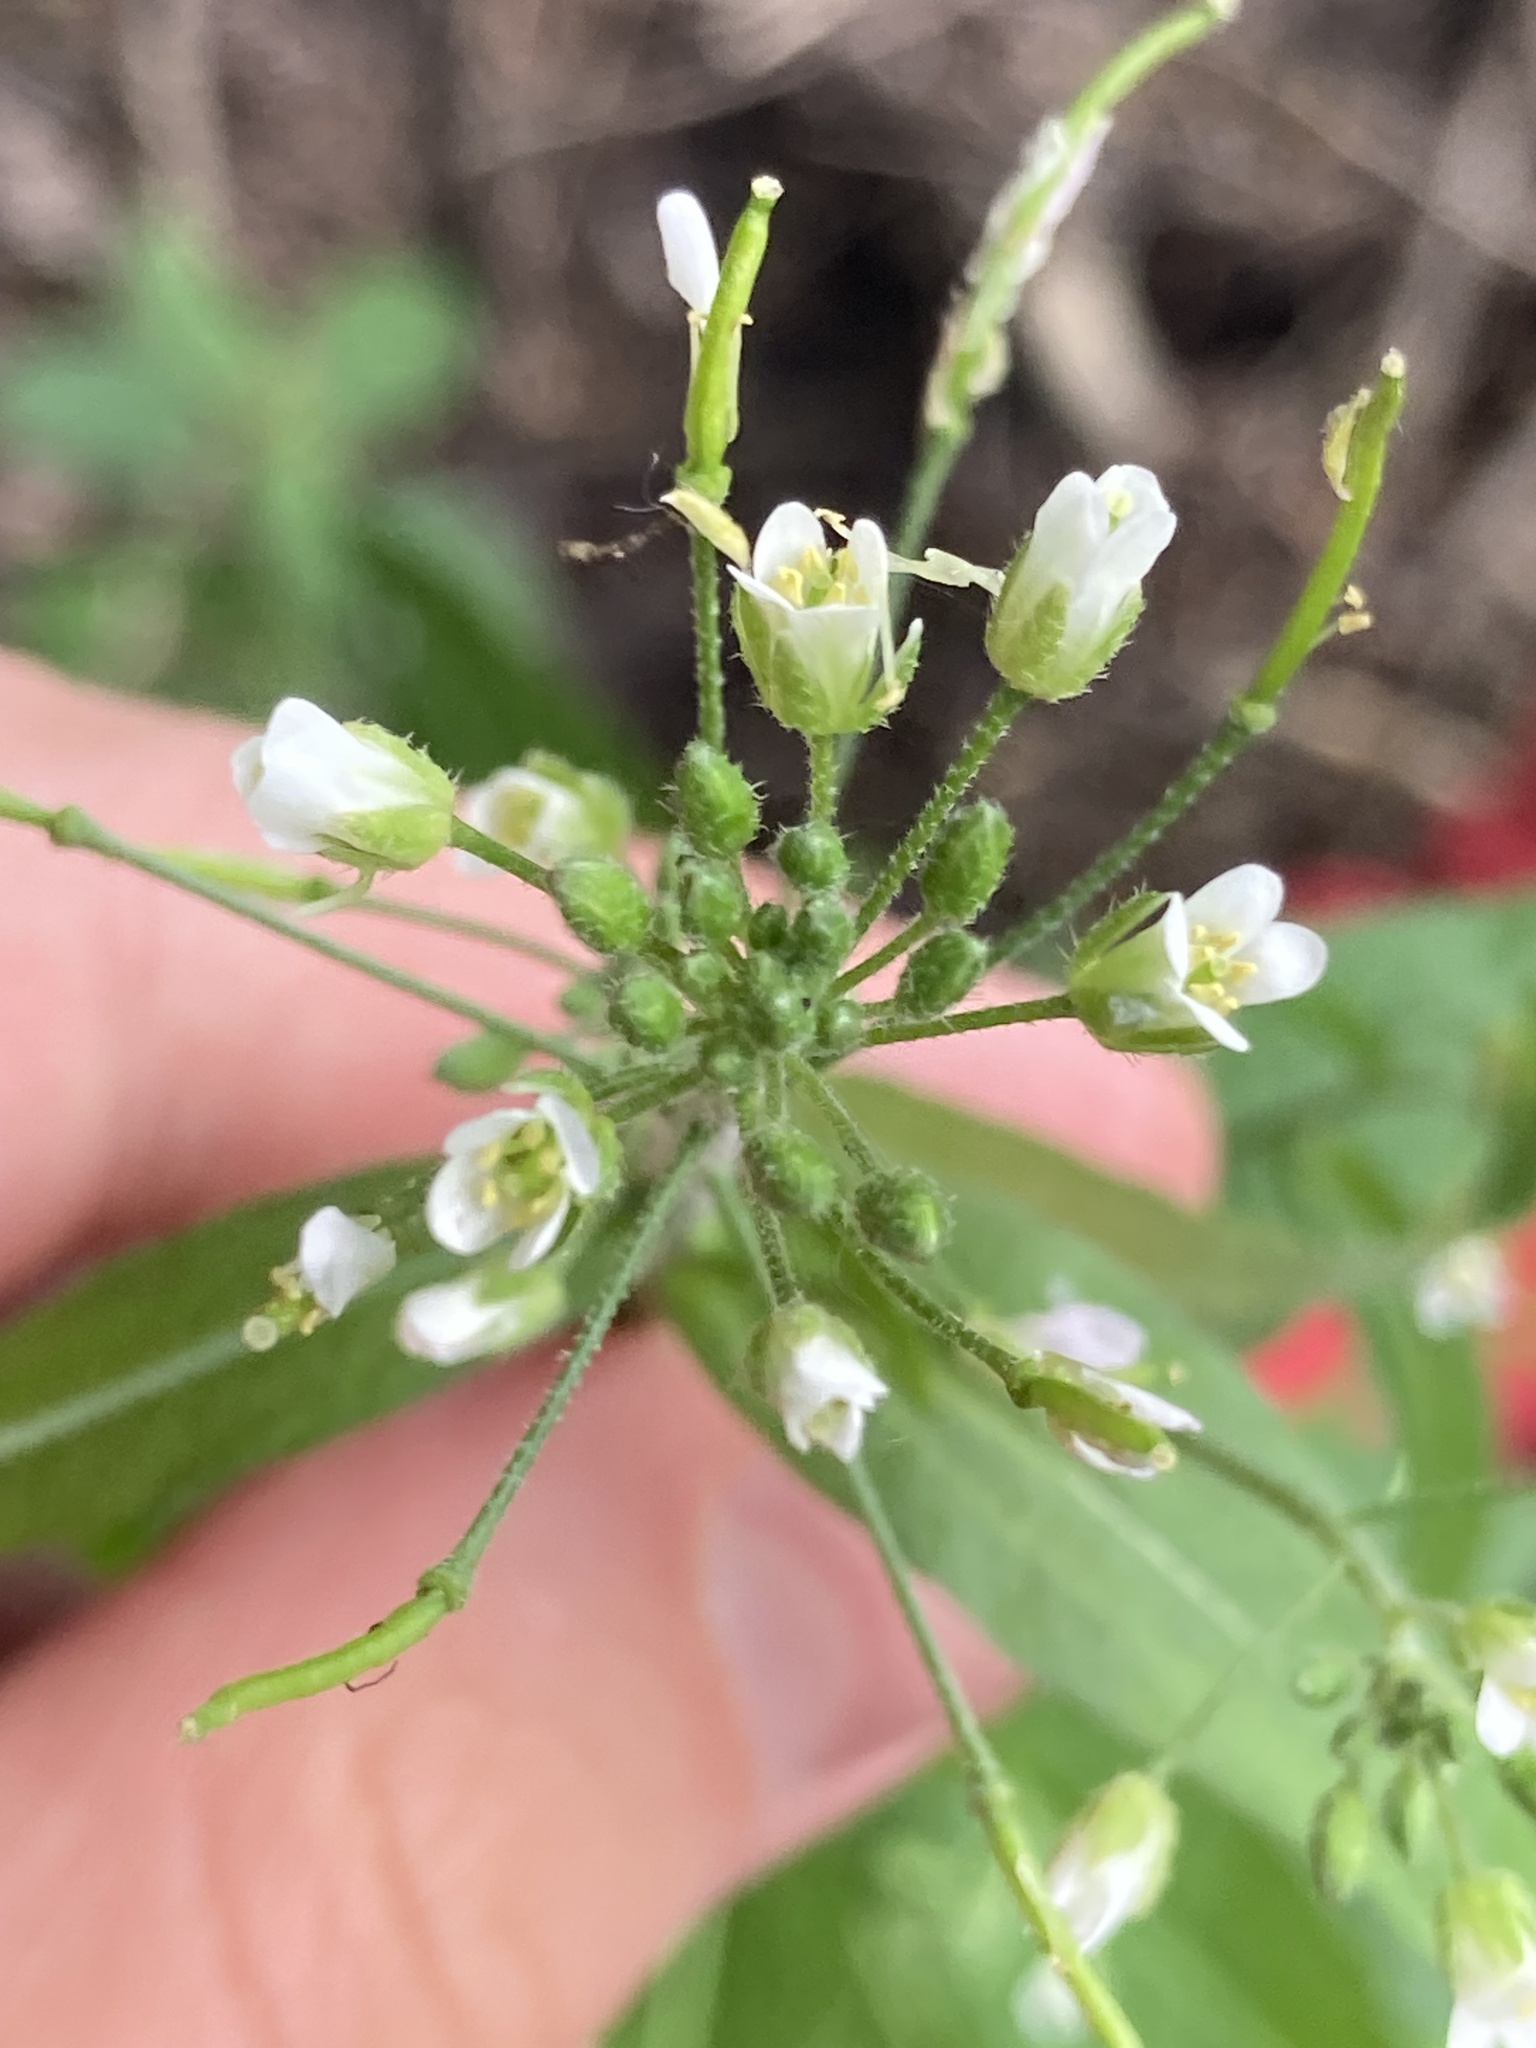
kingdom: Plantae
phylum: Tracheophyta
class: Magnoliopsida
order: Brassicales
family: Brassicaceae
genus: Catolobus
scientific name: Catolobus pendulus
